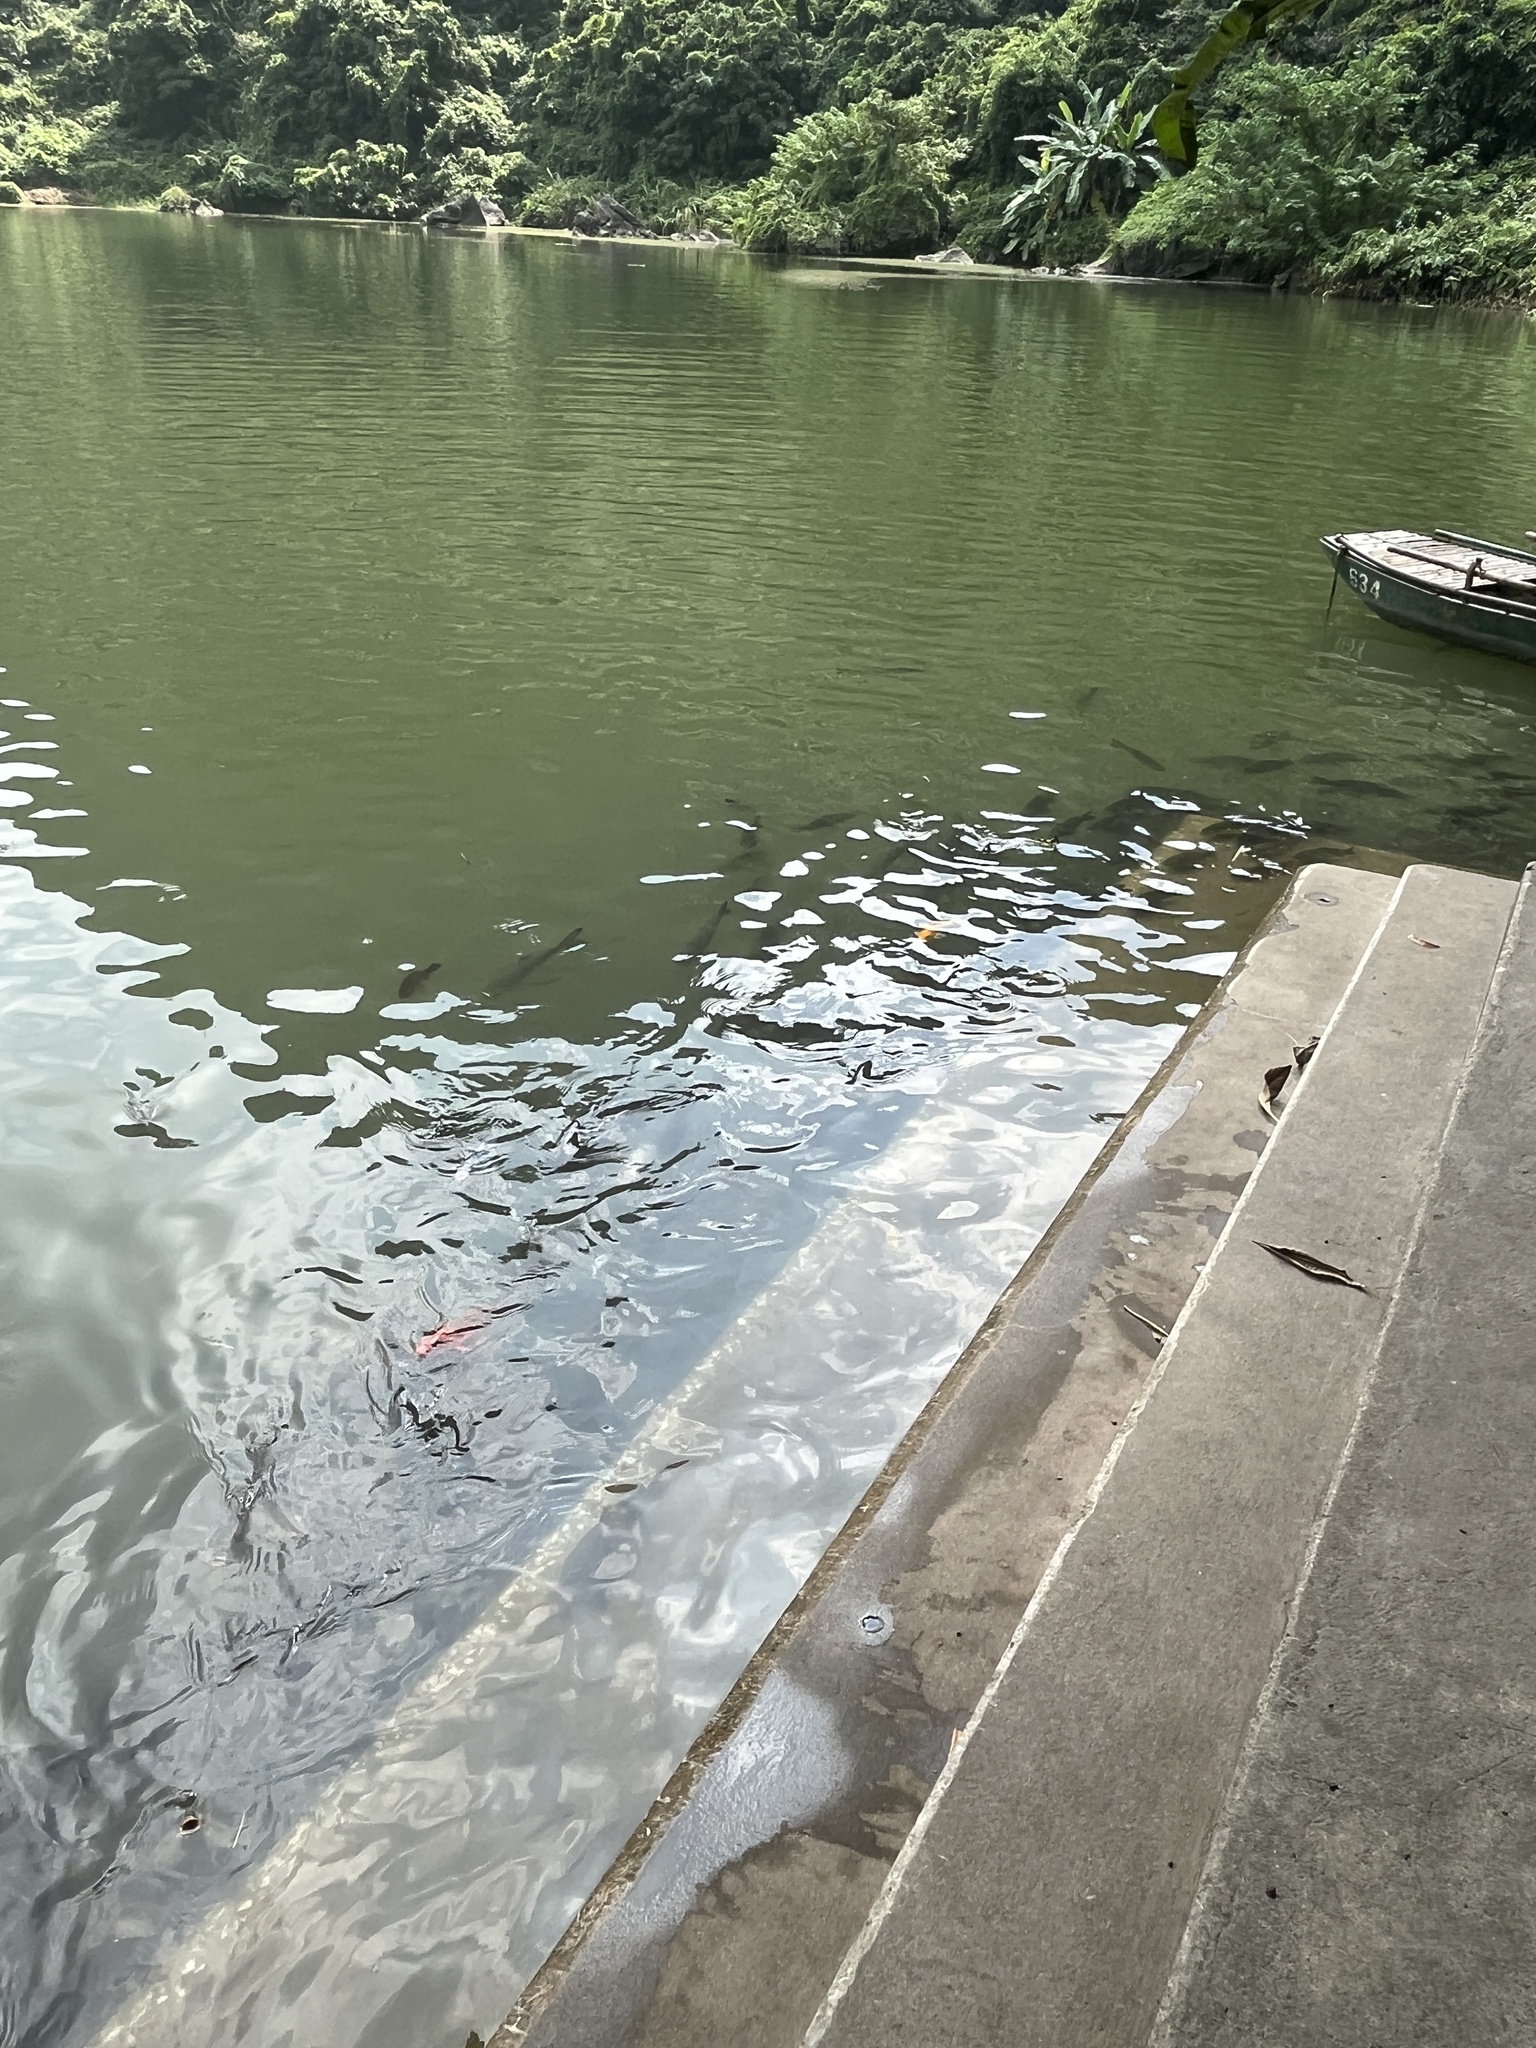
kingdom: Animalia
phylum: Chordata
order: Cypriniformes
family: Cyprinidae
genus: Cyprinus
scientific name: Cyprinus rubrofuscus
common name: Koi
